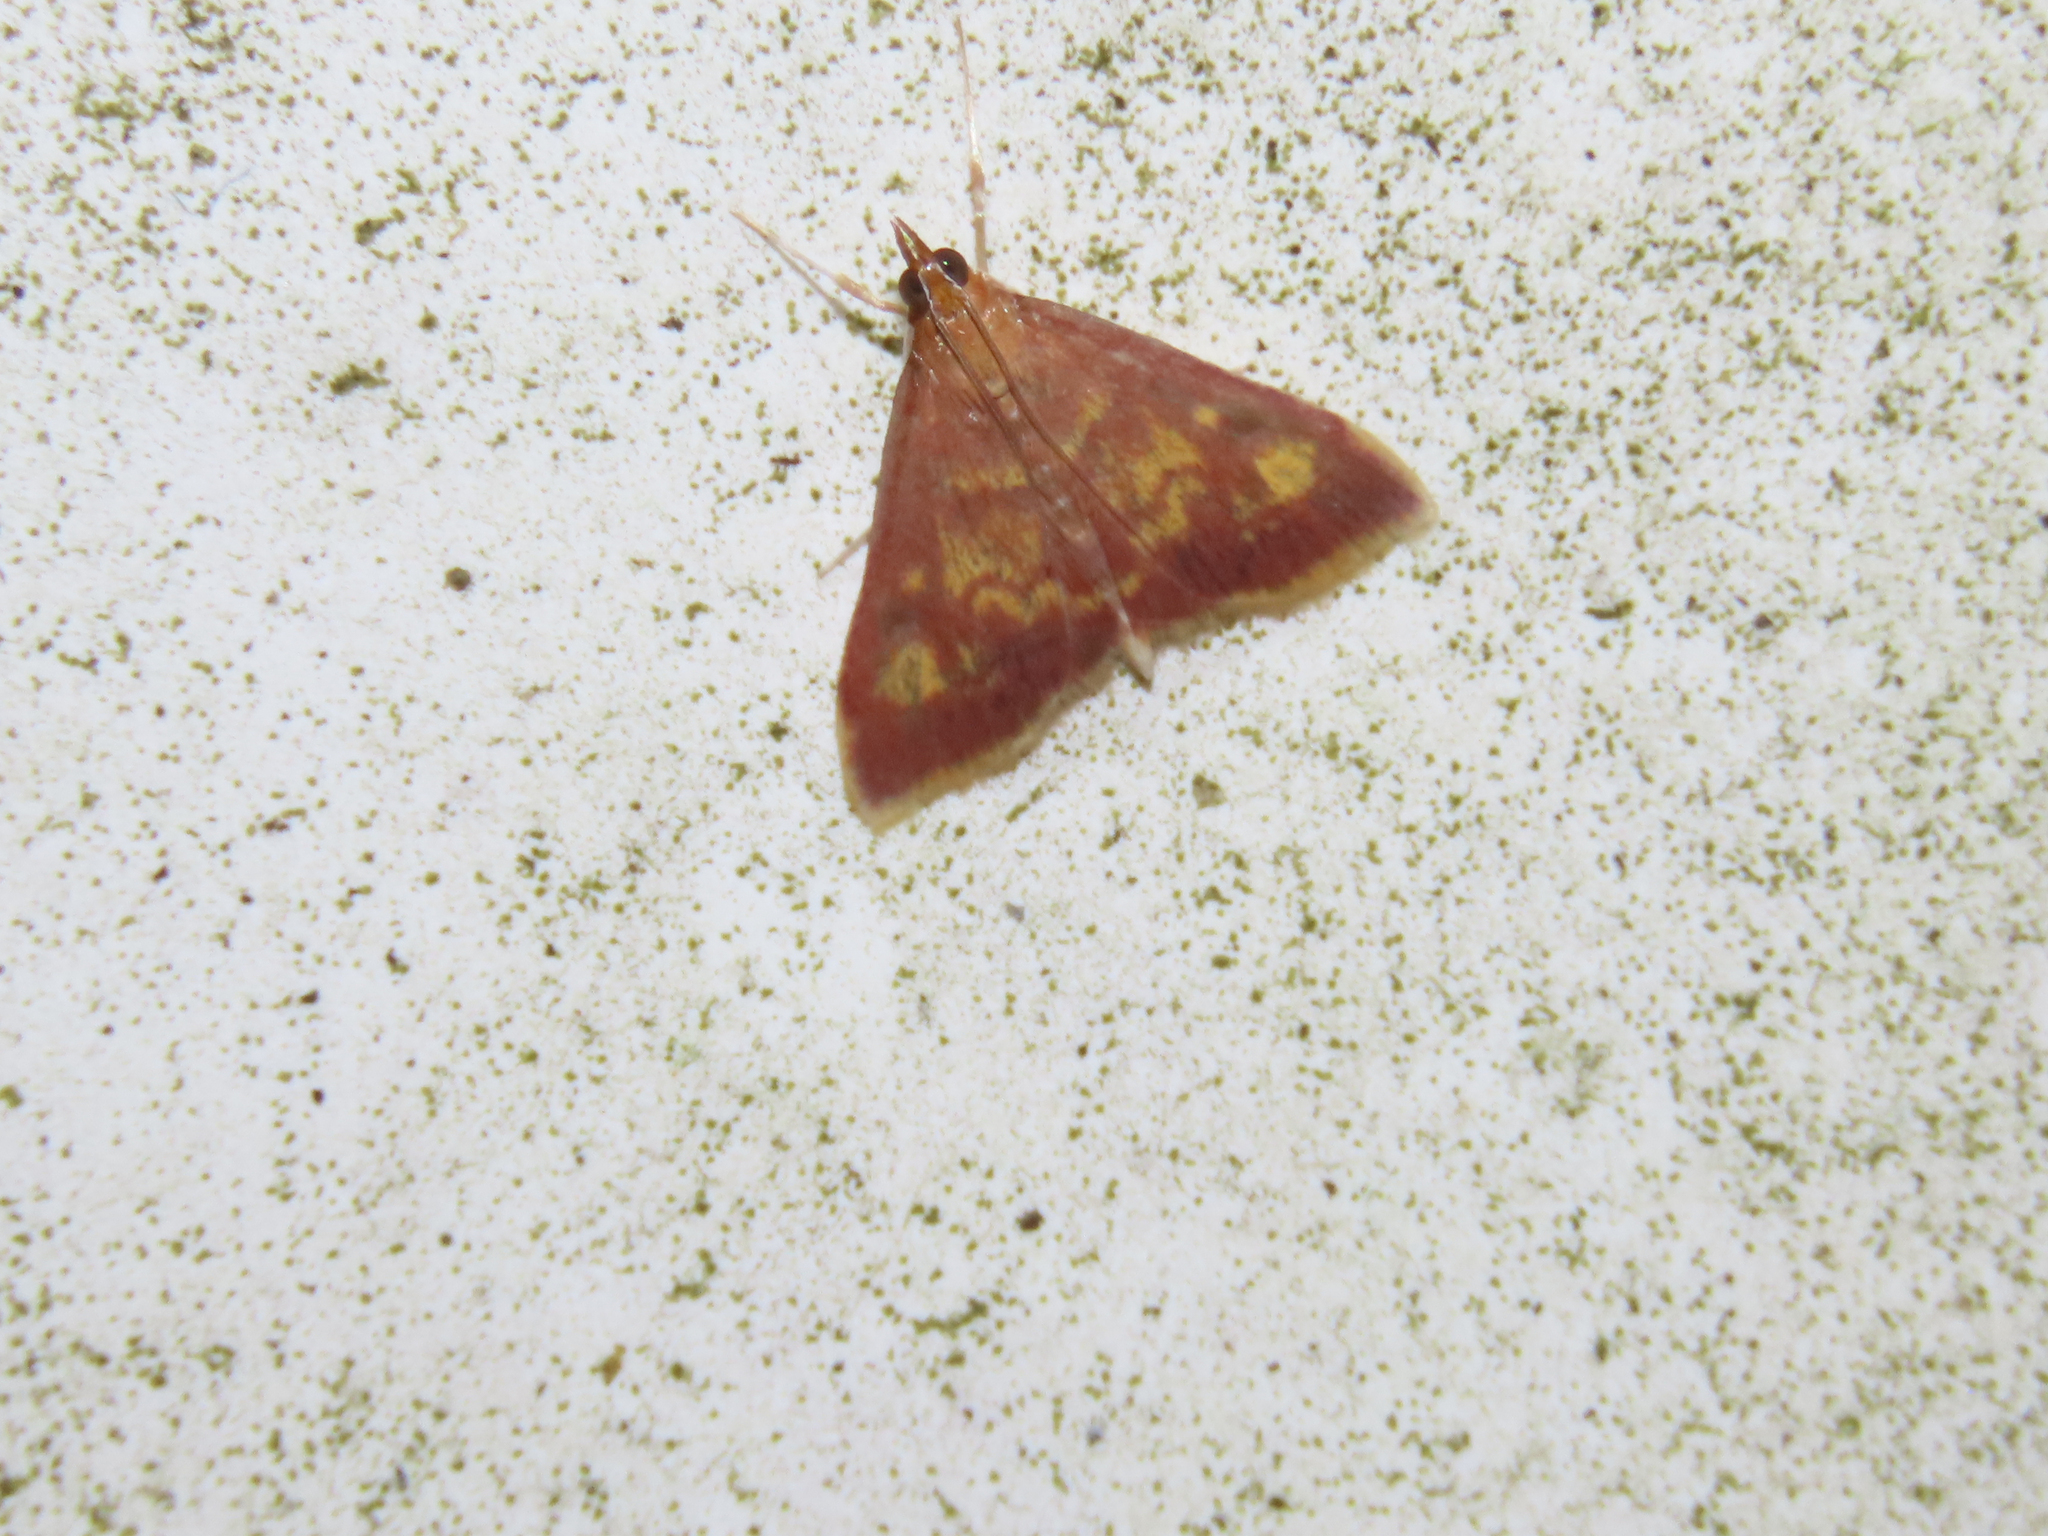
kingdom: Animalia
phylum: Arthropoda
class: Insecta
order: Lepidoptera
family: Crambidae
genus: Pyrausta
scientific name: Pyrausta acrionalis
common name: Mint-loving pyrausta moth
